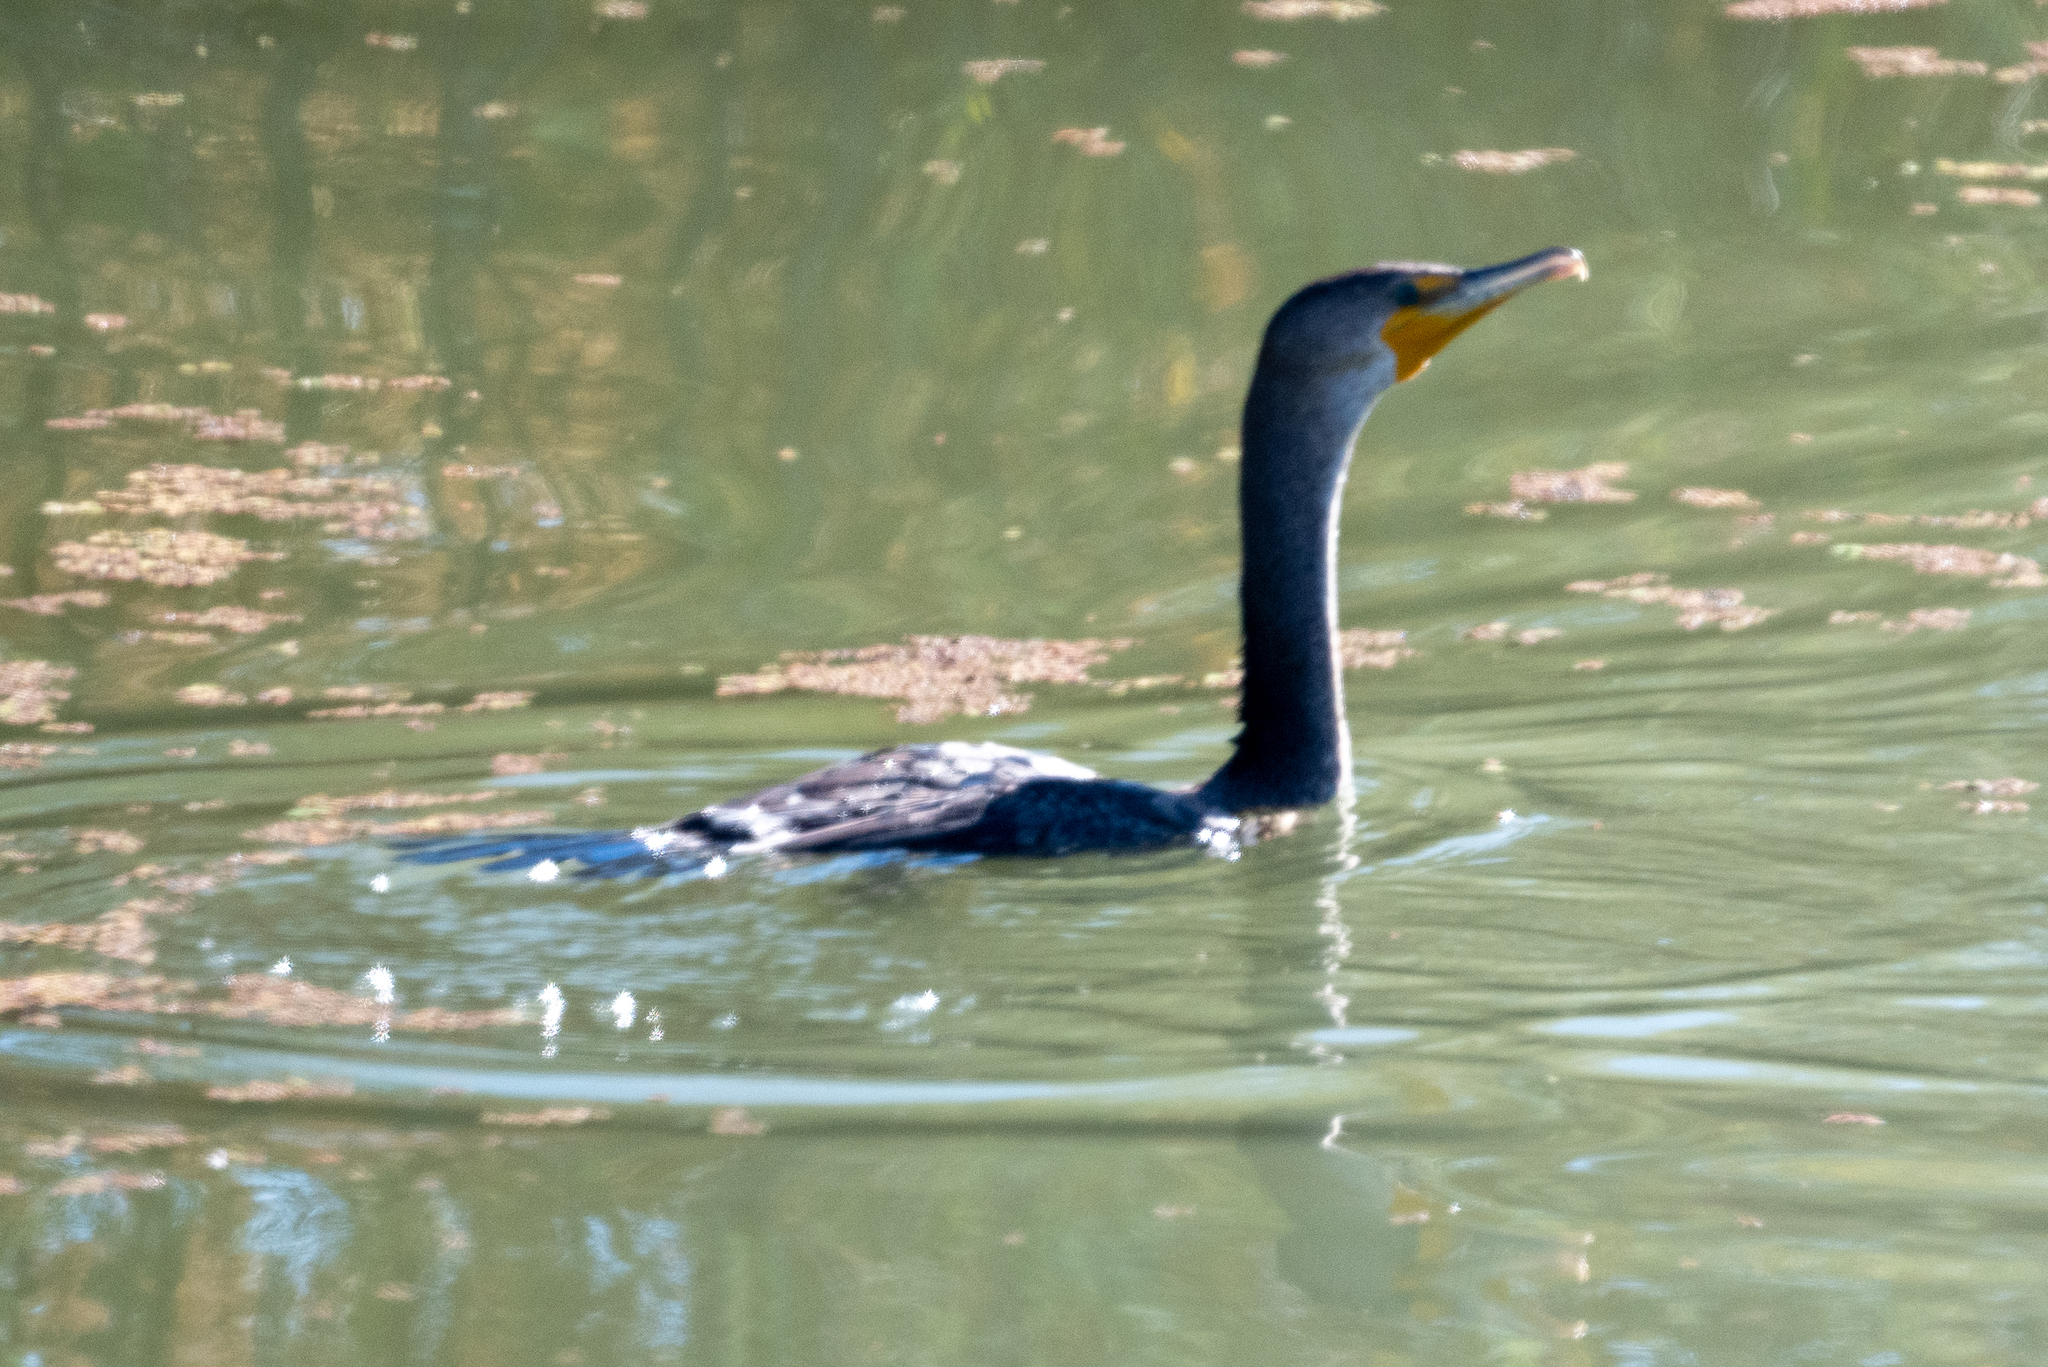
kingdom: Animalia
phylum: Chordata
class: Aves
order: Suliformes
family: Phalacrocoracidae
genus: Phalacrocorax
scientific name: Phalacrocorax auritus
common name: Double-crested cormorant
